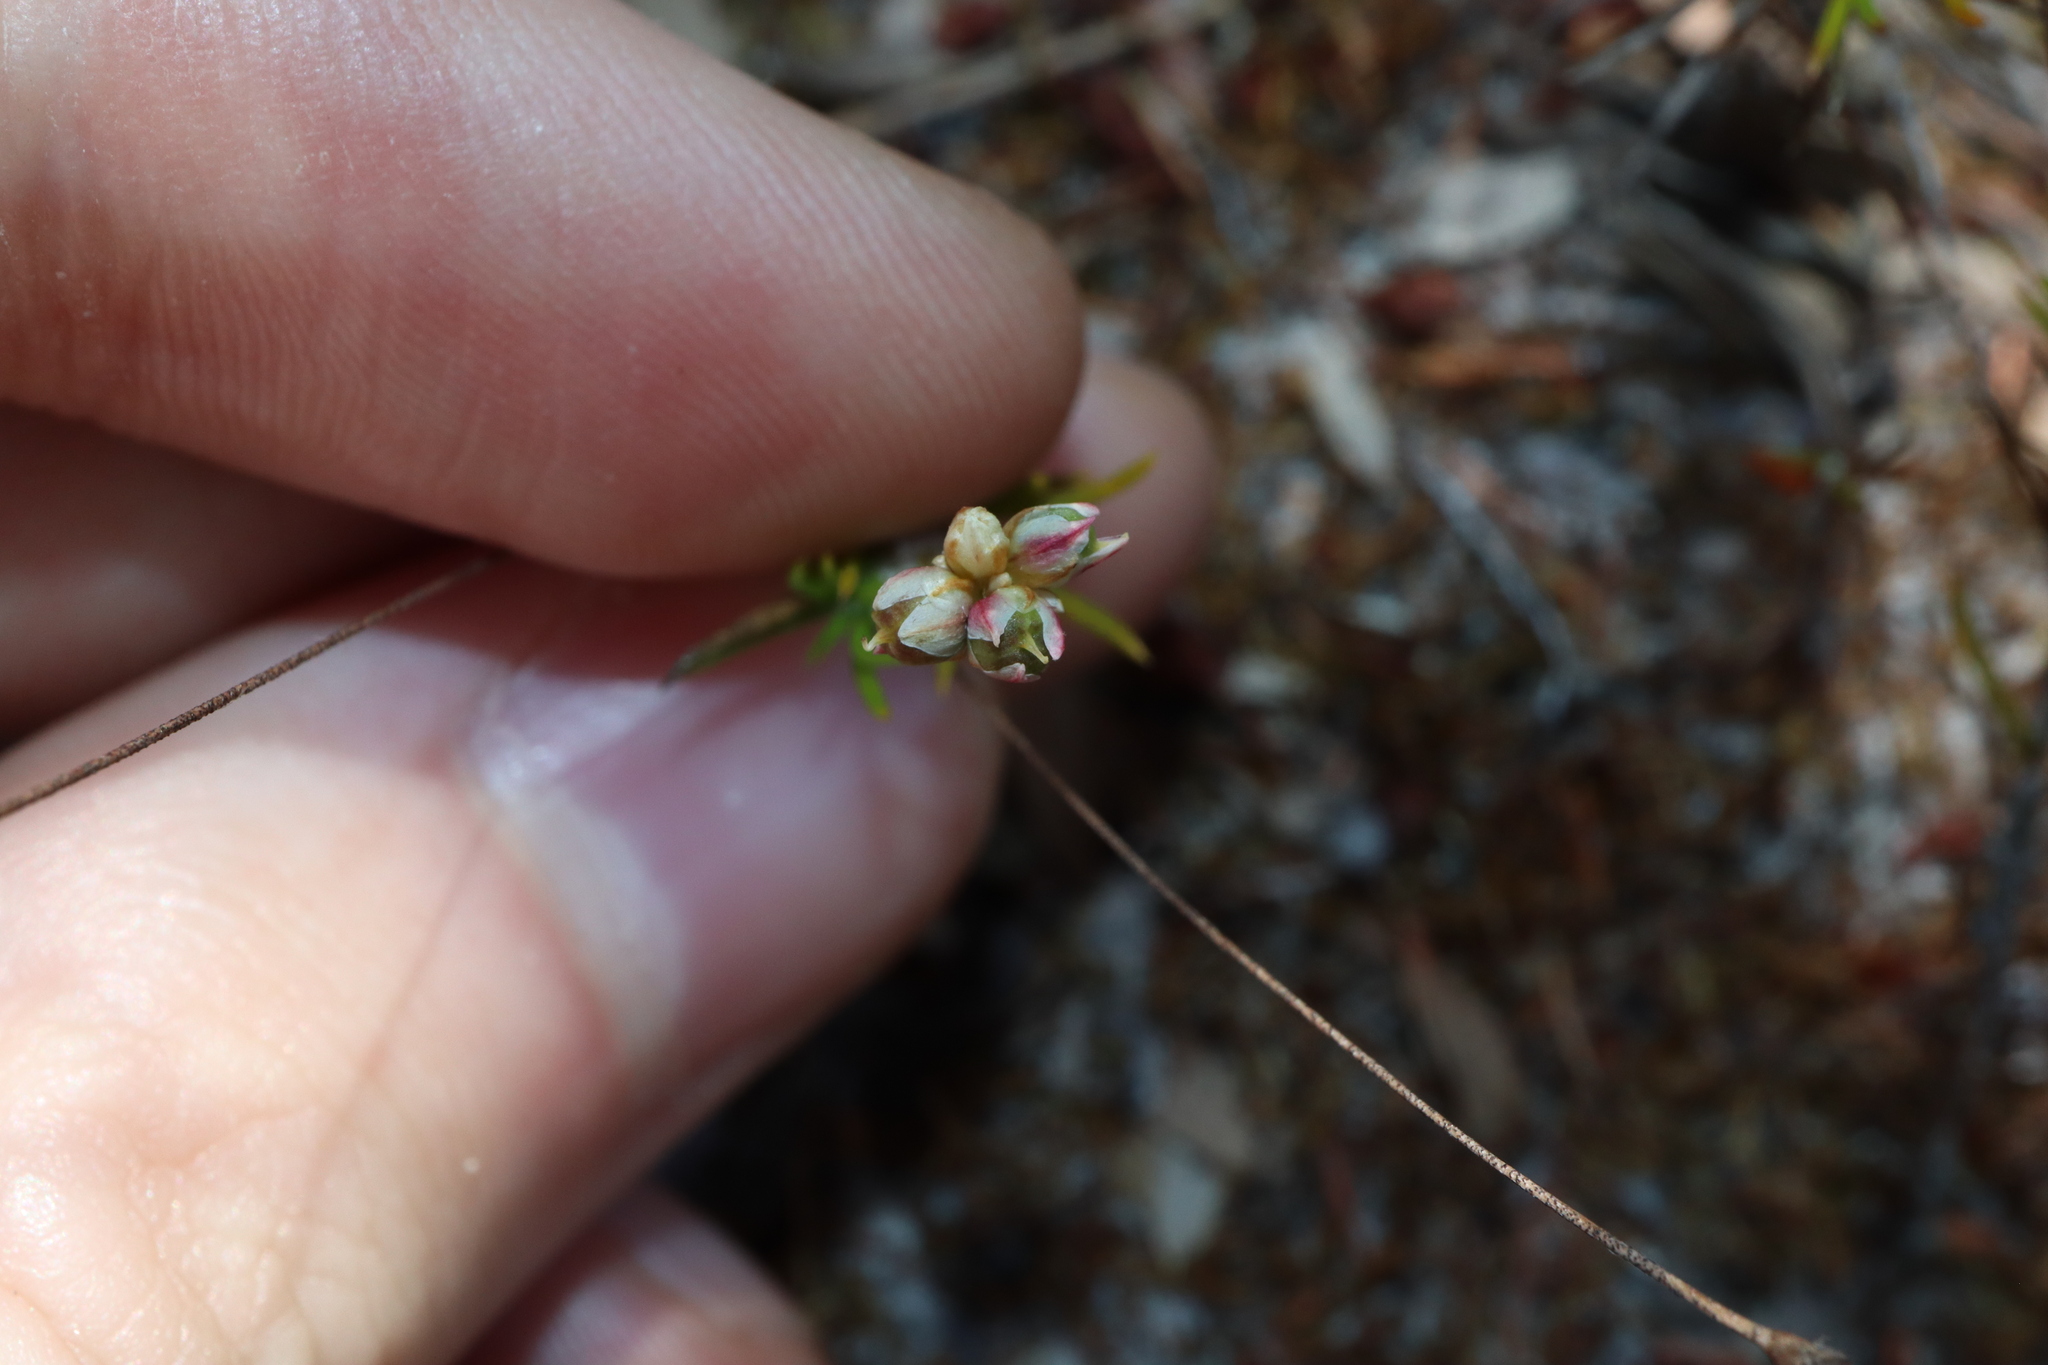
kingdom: Plantae
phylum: Tracheophyta
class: Liliopsida
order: Asparagales
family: Asparagaceae
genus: Laxmannia
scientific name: Laxmannia gracilis
